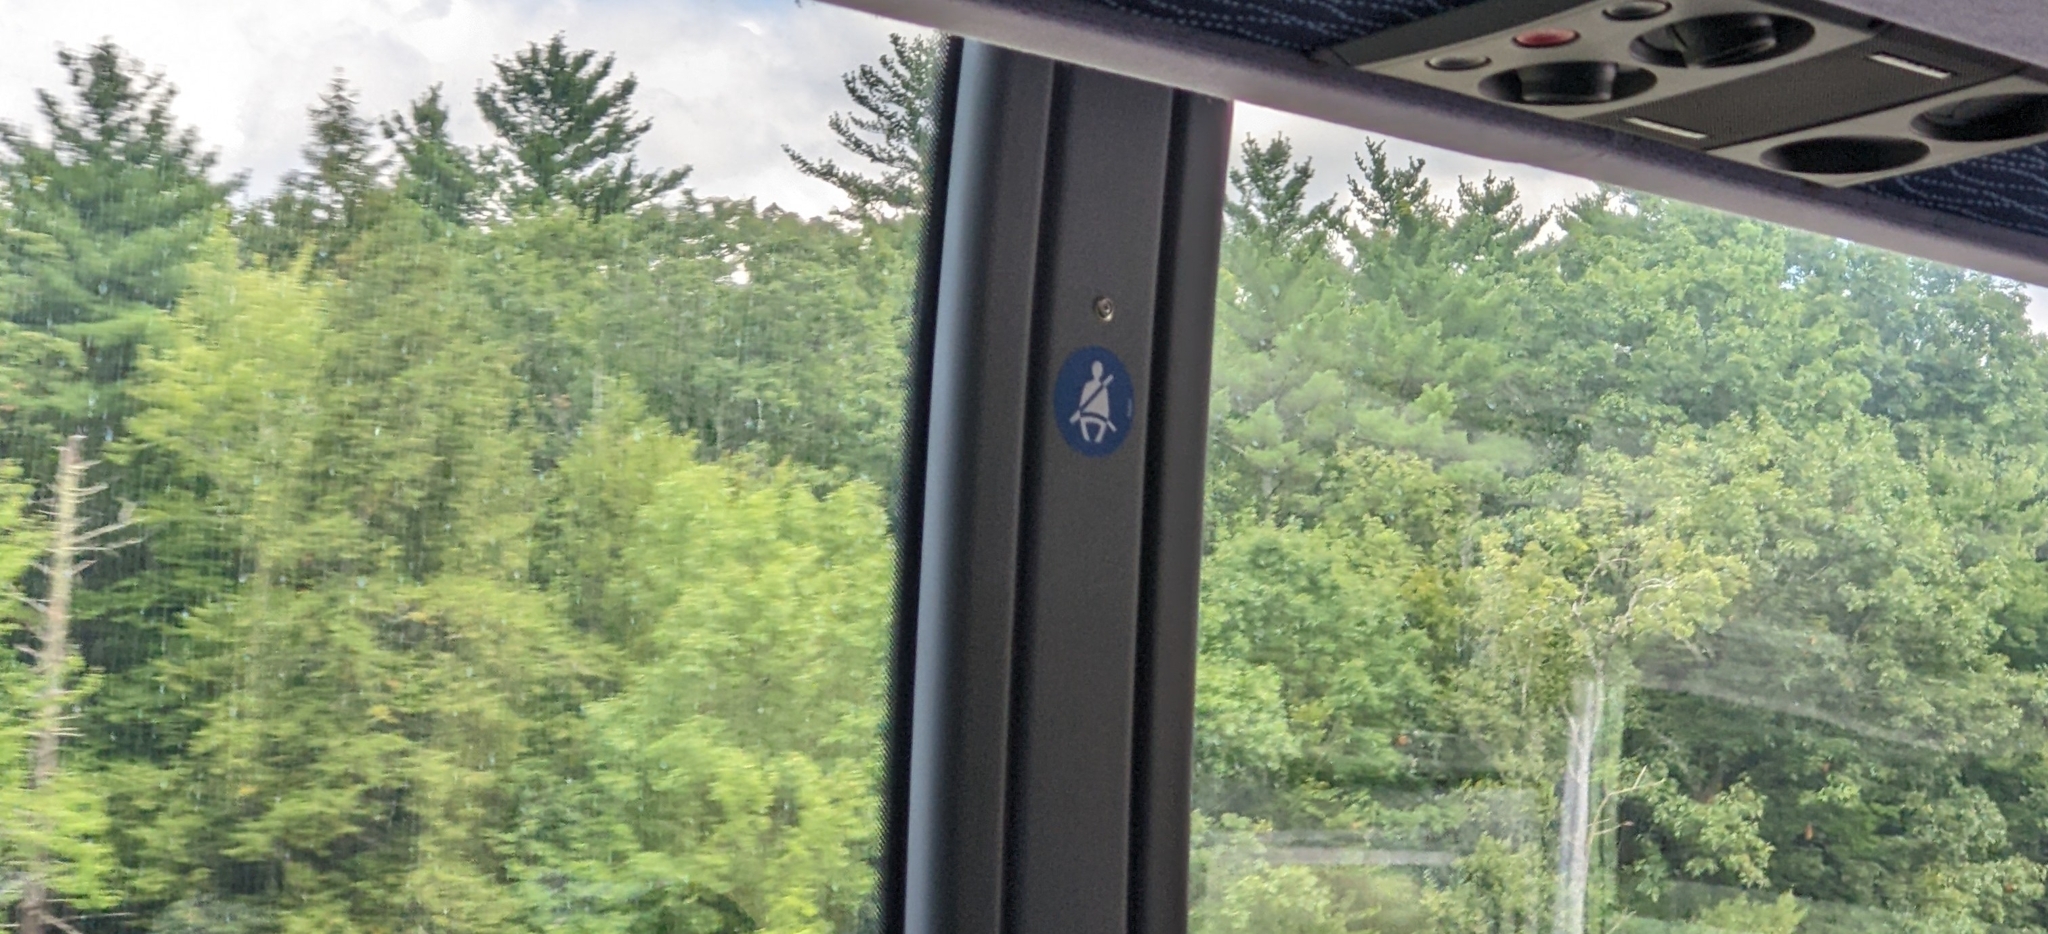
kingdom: Plantae
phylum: Tracheophyta
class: Pinopsida
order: Pinales
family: Pinaceae
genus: Pinus
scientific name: Pinus strobus
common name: Weymouth pine
